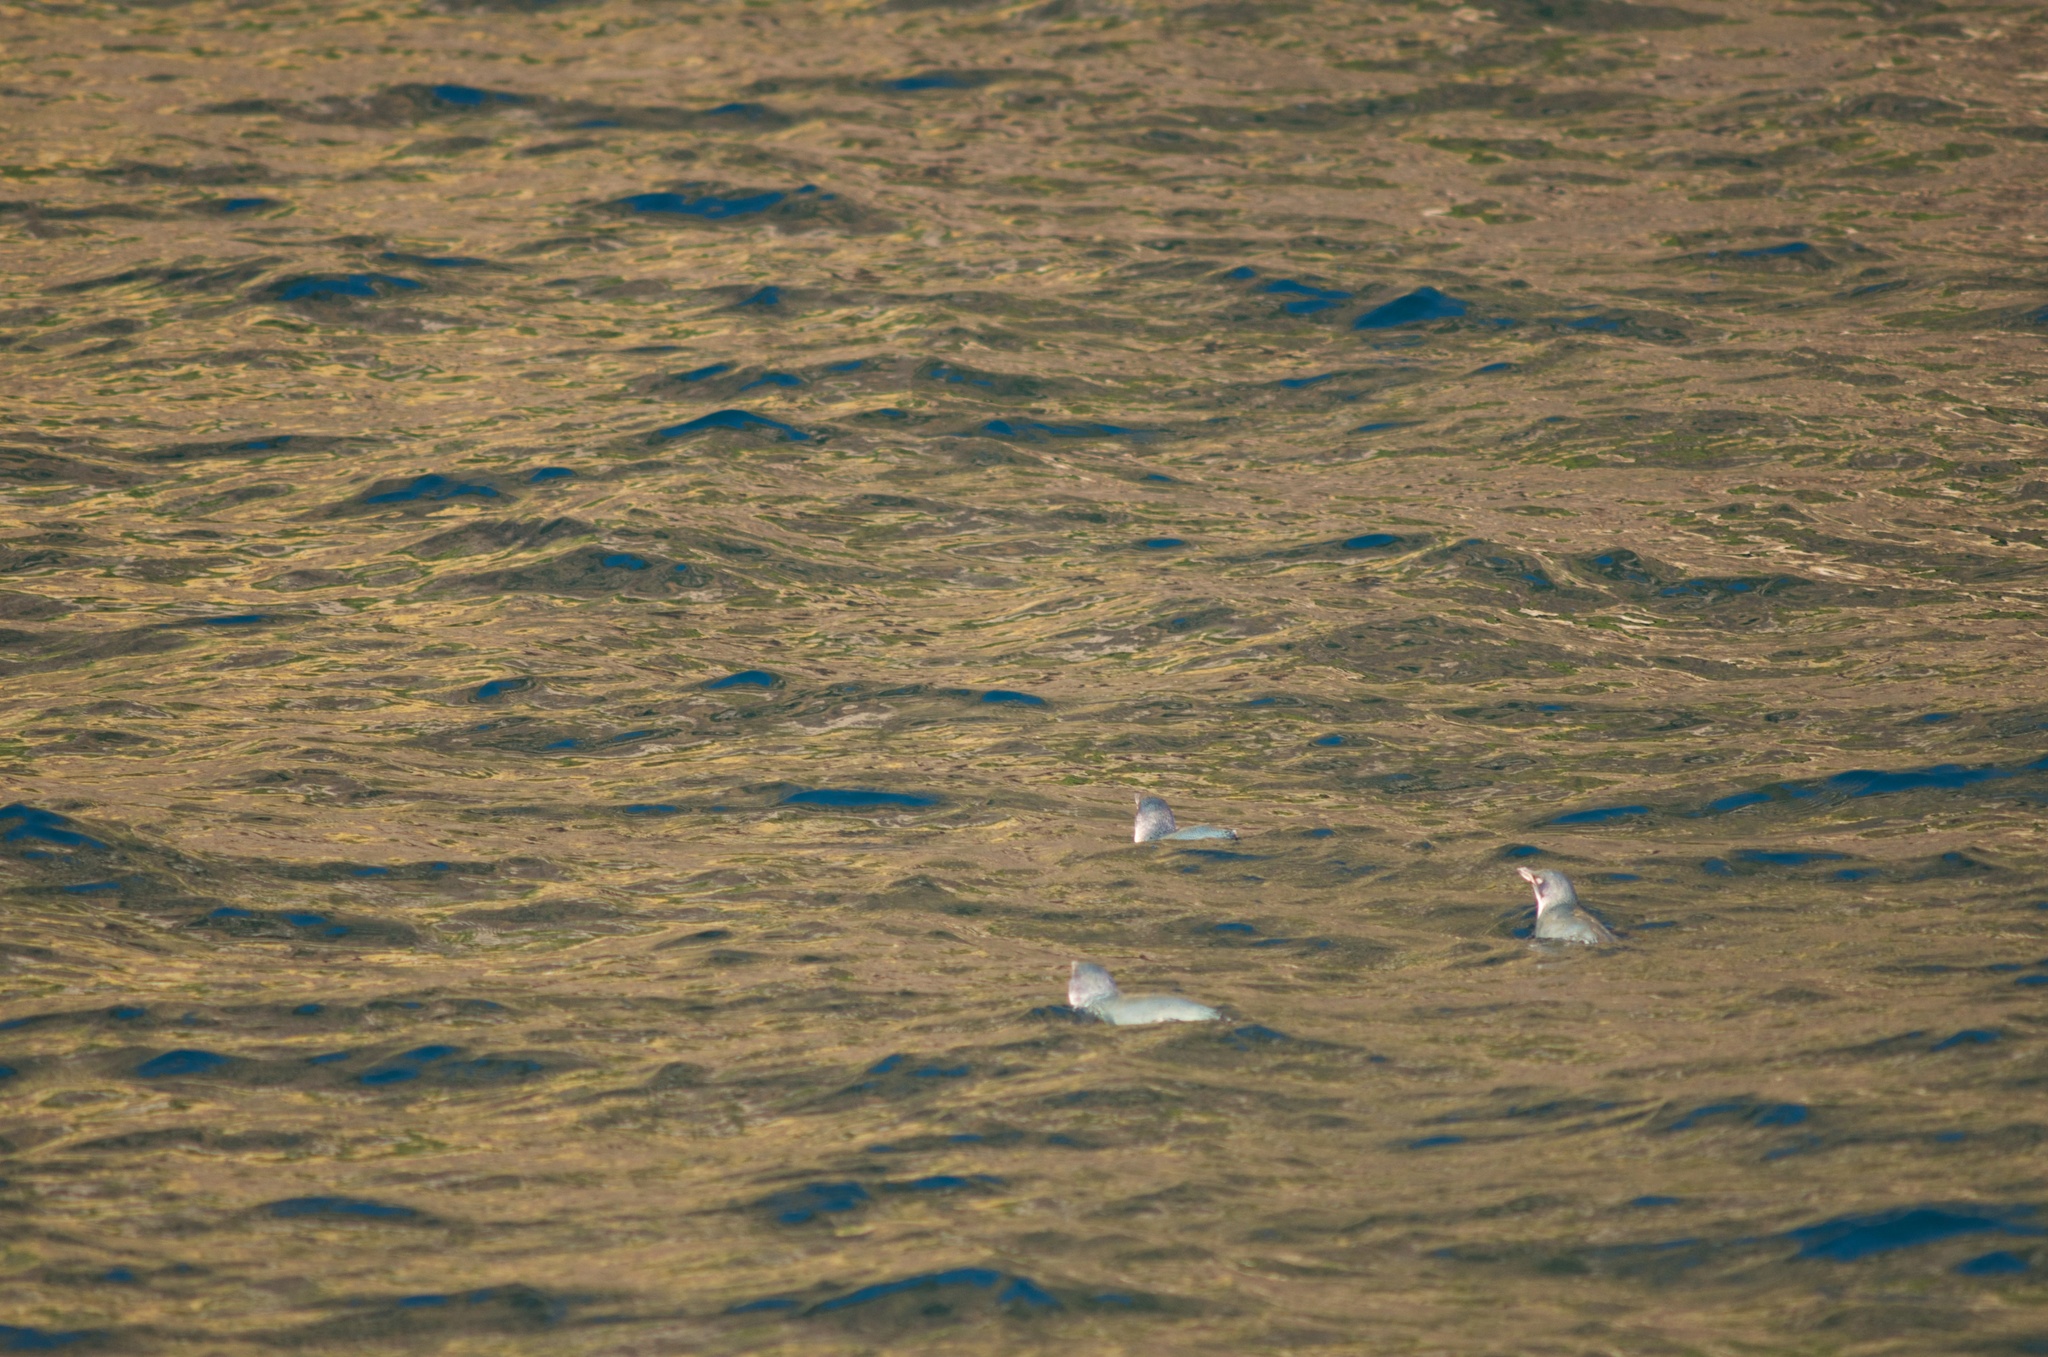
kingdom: Animalia
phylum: Chordata
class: Aves
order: Sphenisciformes
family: Spheniscidae
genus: Eudyptula
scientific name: Eudyptula minor
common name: Little penguin
